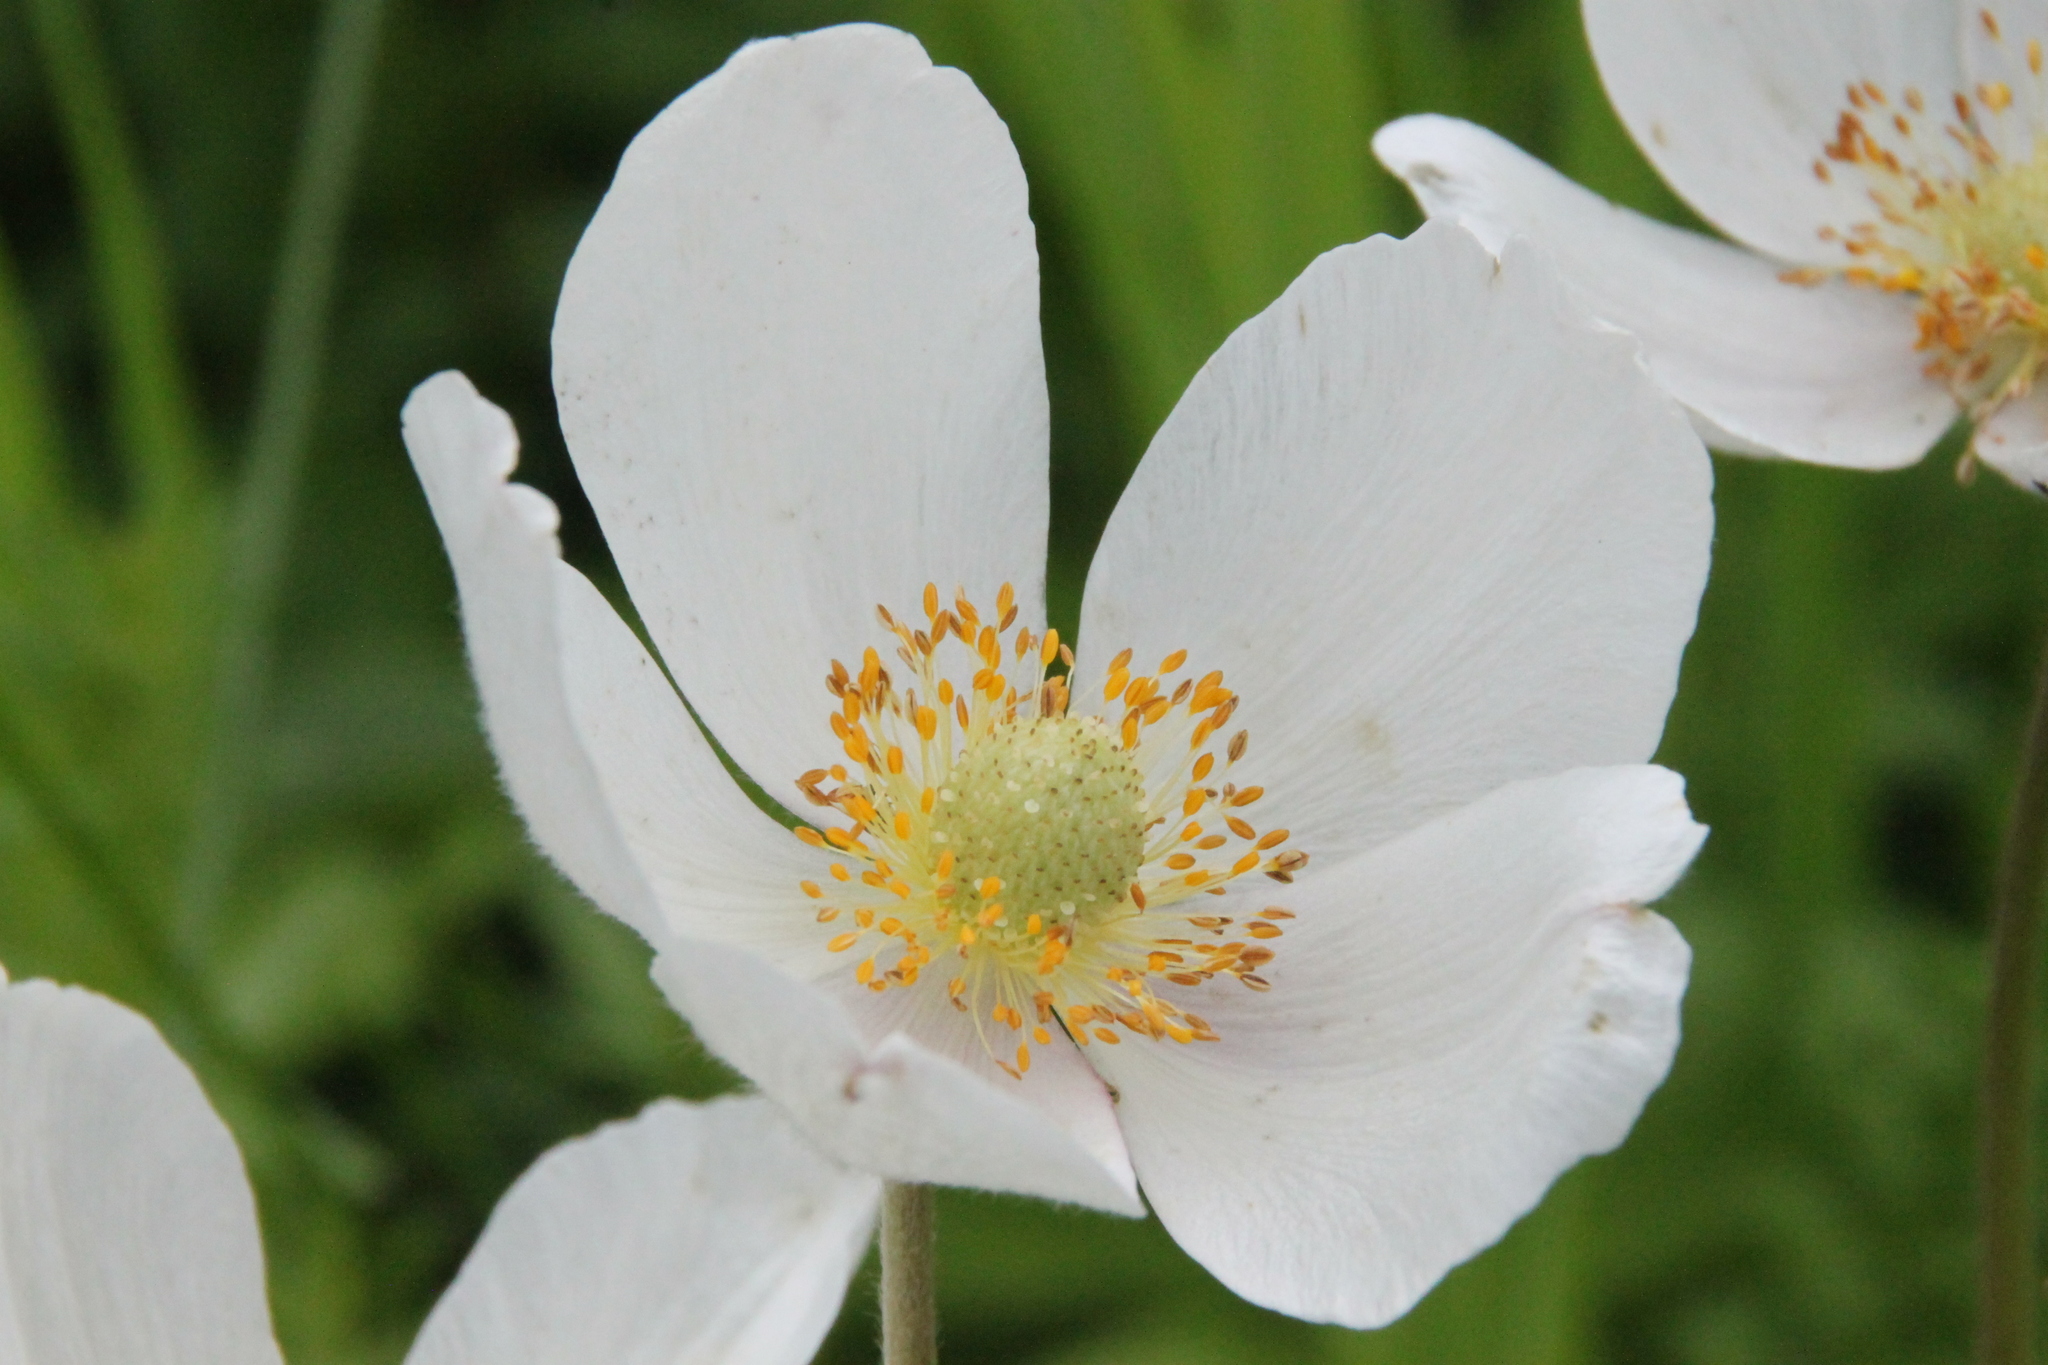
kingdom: Plantae
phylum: Tracheophyta
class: Magnoliopsida
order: Ranunculales
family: Ranunculaceae
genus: Anemone
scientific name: Anemone sylvestris
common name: Snowdrop anemone
